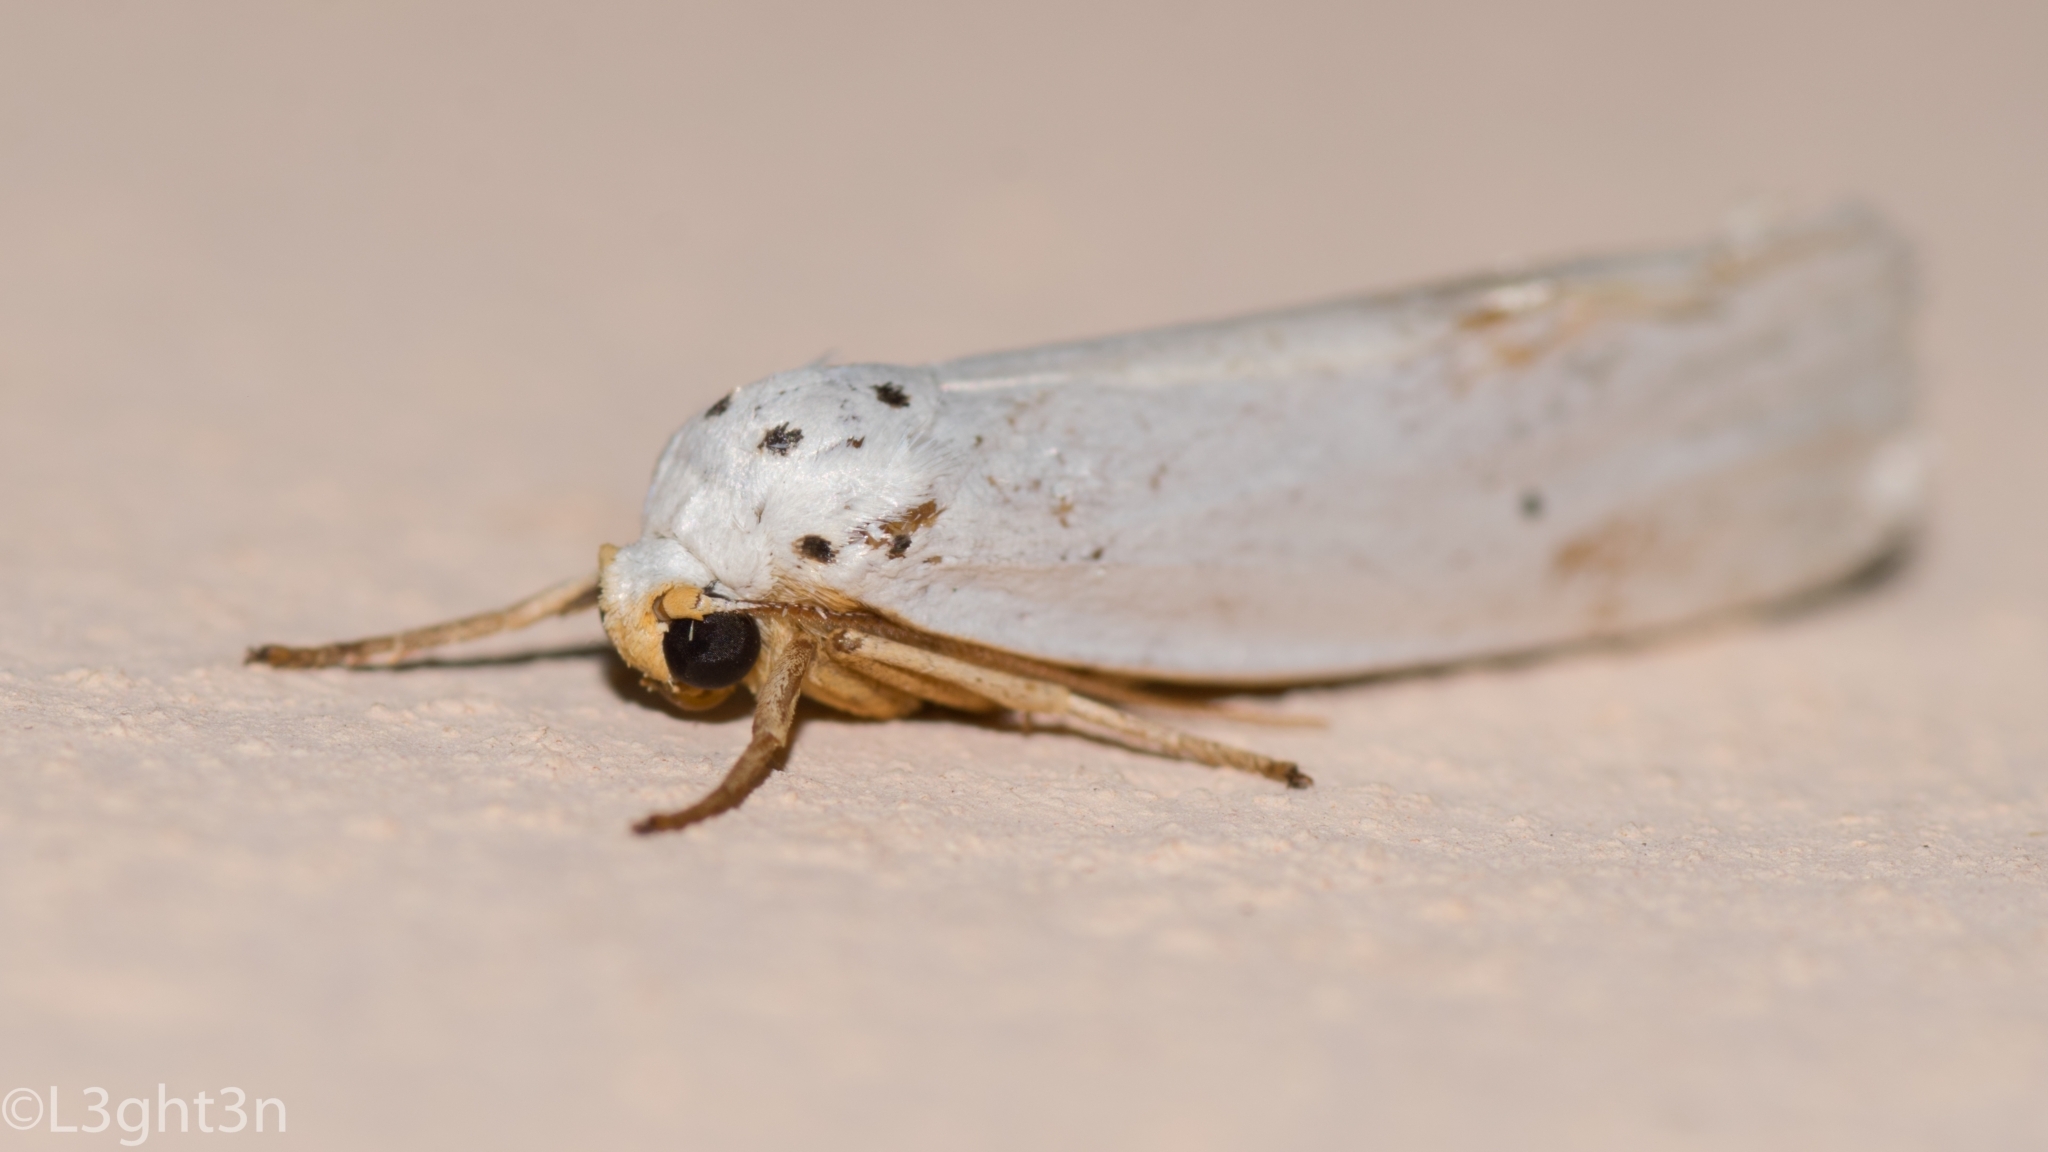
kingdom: Animalia
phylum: Arthropoda
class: Insecta
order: Lepidoptera
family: Erebidae
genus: Ilemodes
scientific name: Ilemodes astriga
